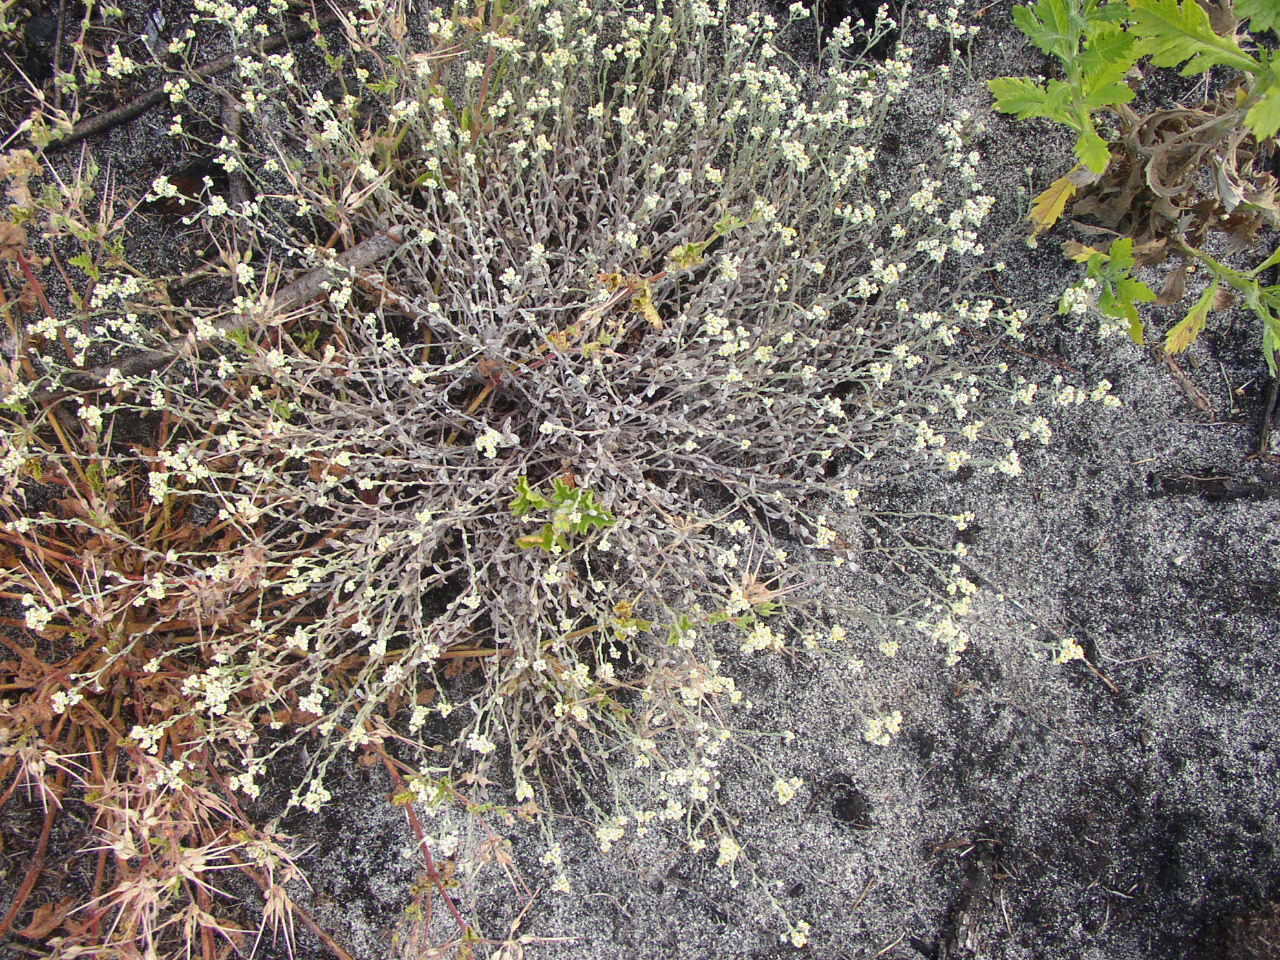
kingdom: Plantae
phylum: Tracheophyta
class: Magnoliopsida
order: Asterales
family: Asteraceae
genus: Helichrysum
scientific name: Helichrysum indicum
